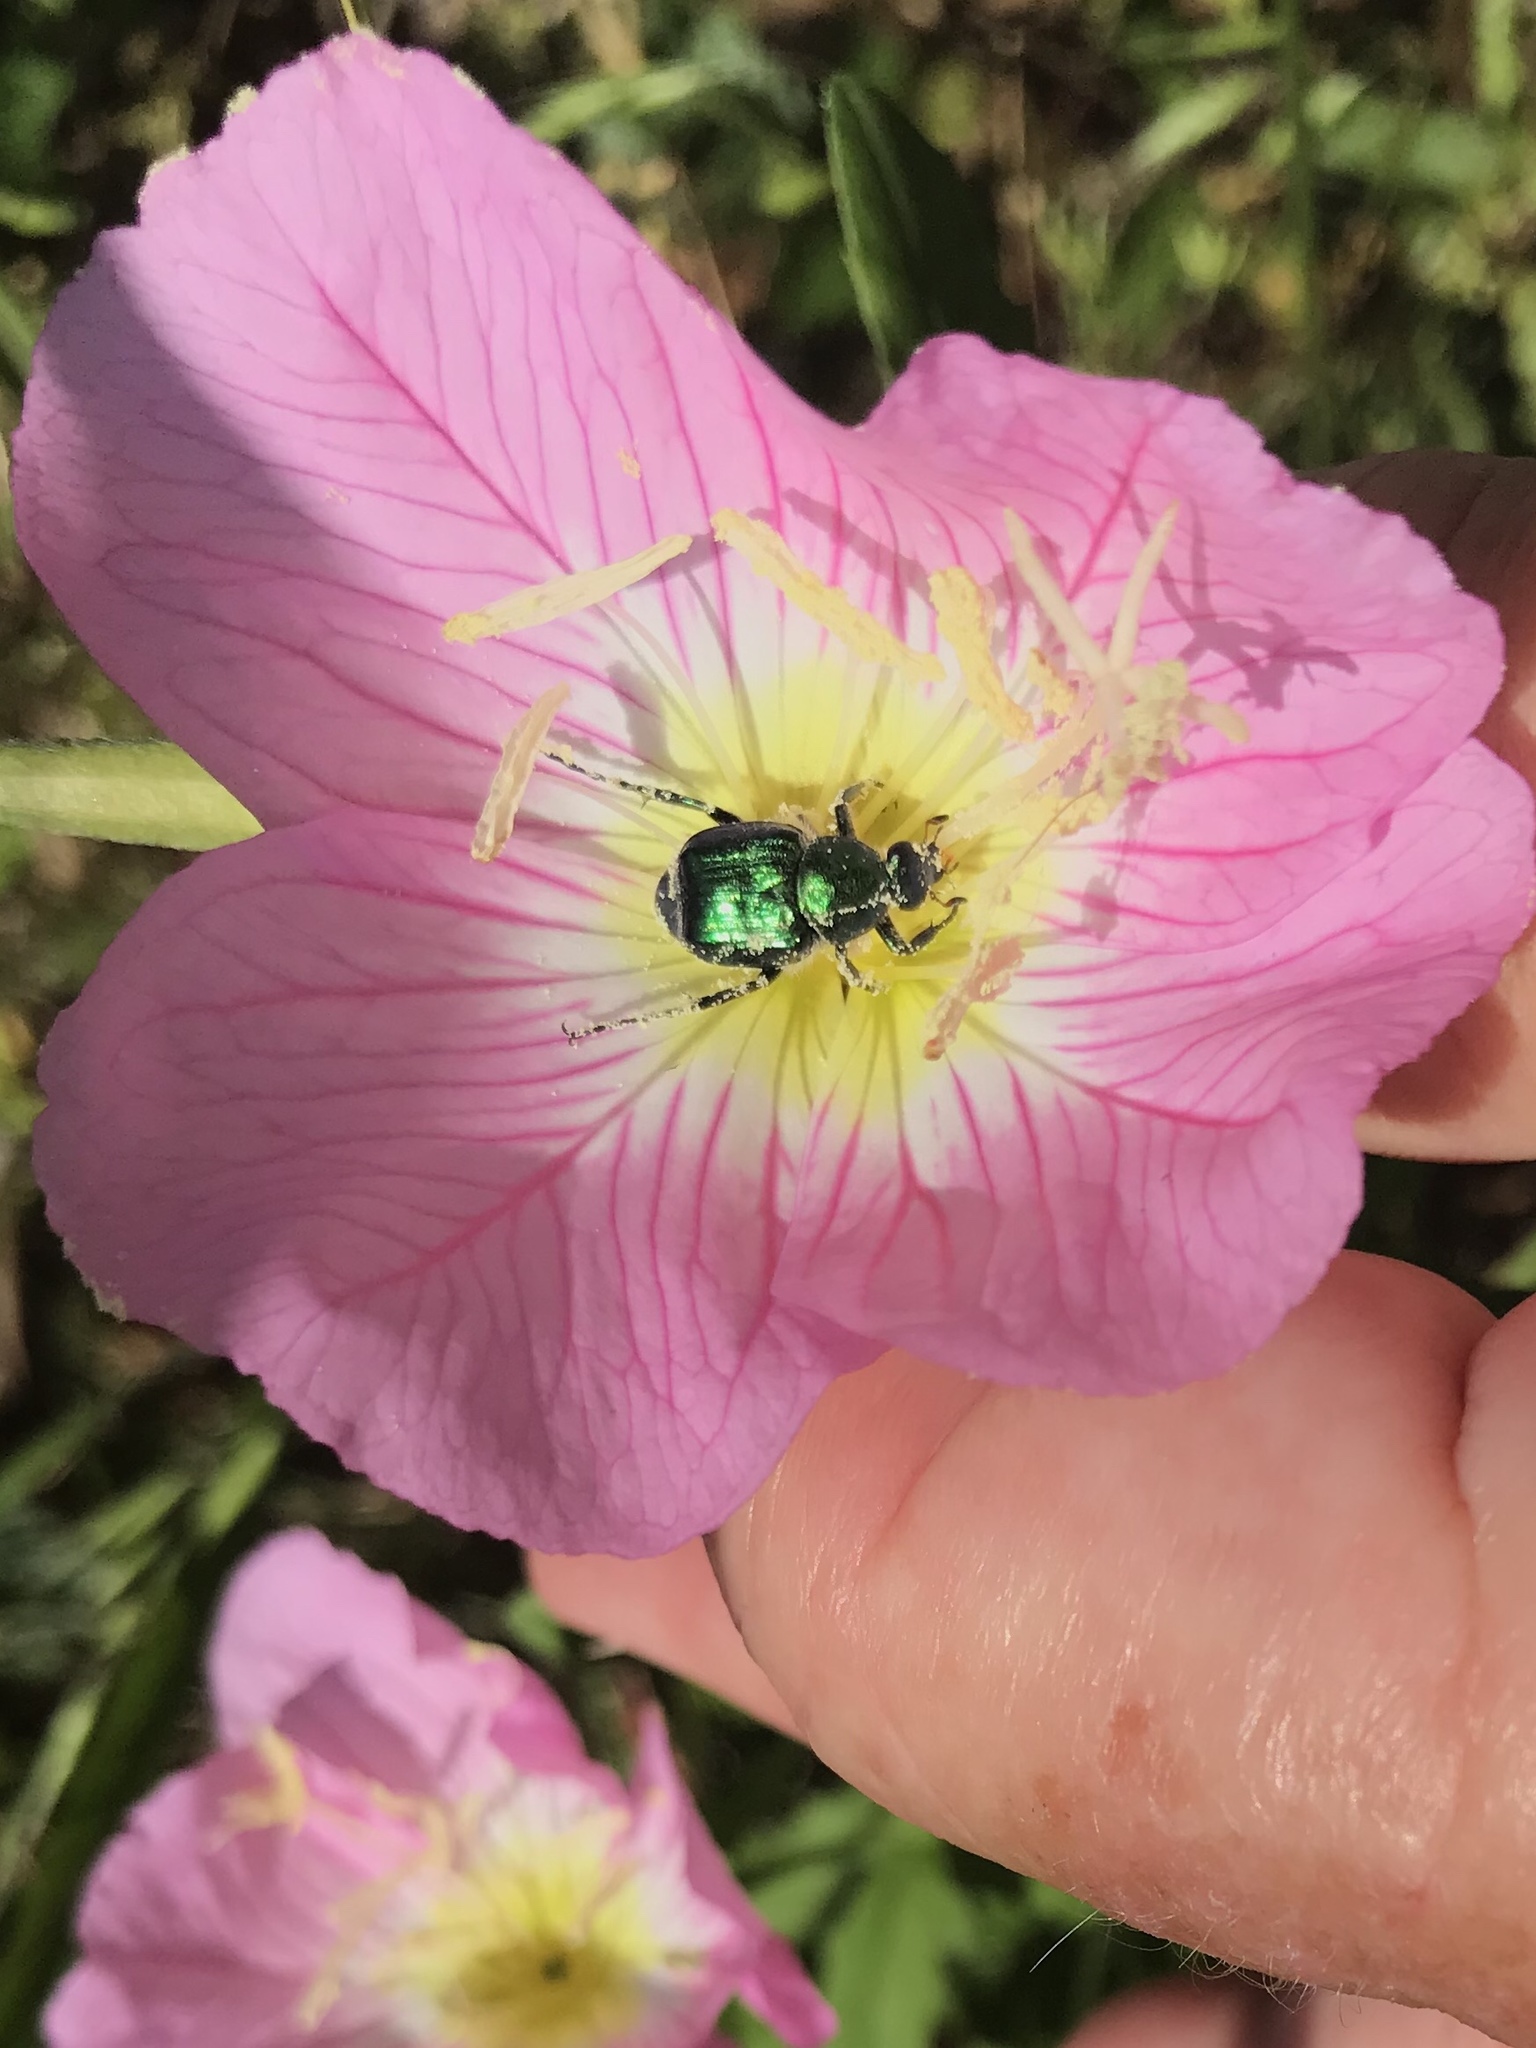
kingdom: Animalia
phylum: Arthropoda
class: Insecta
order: Coleoptera
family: Scarabaeidae
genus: Trichiotinus
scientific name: Trichiotinus lunulatus
